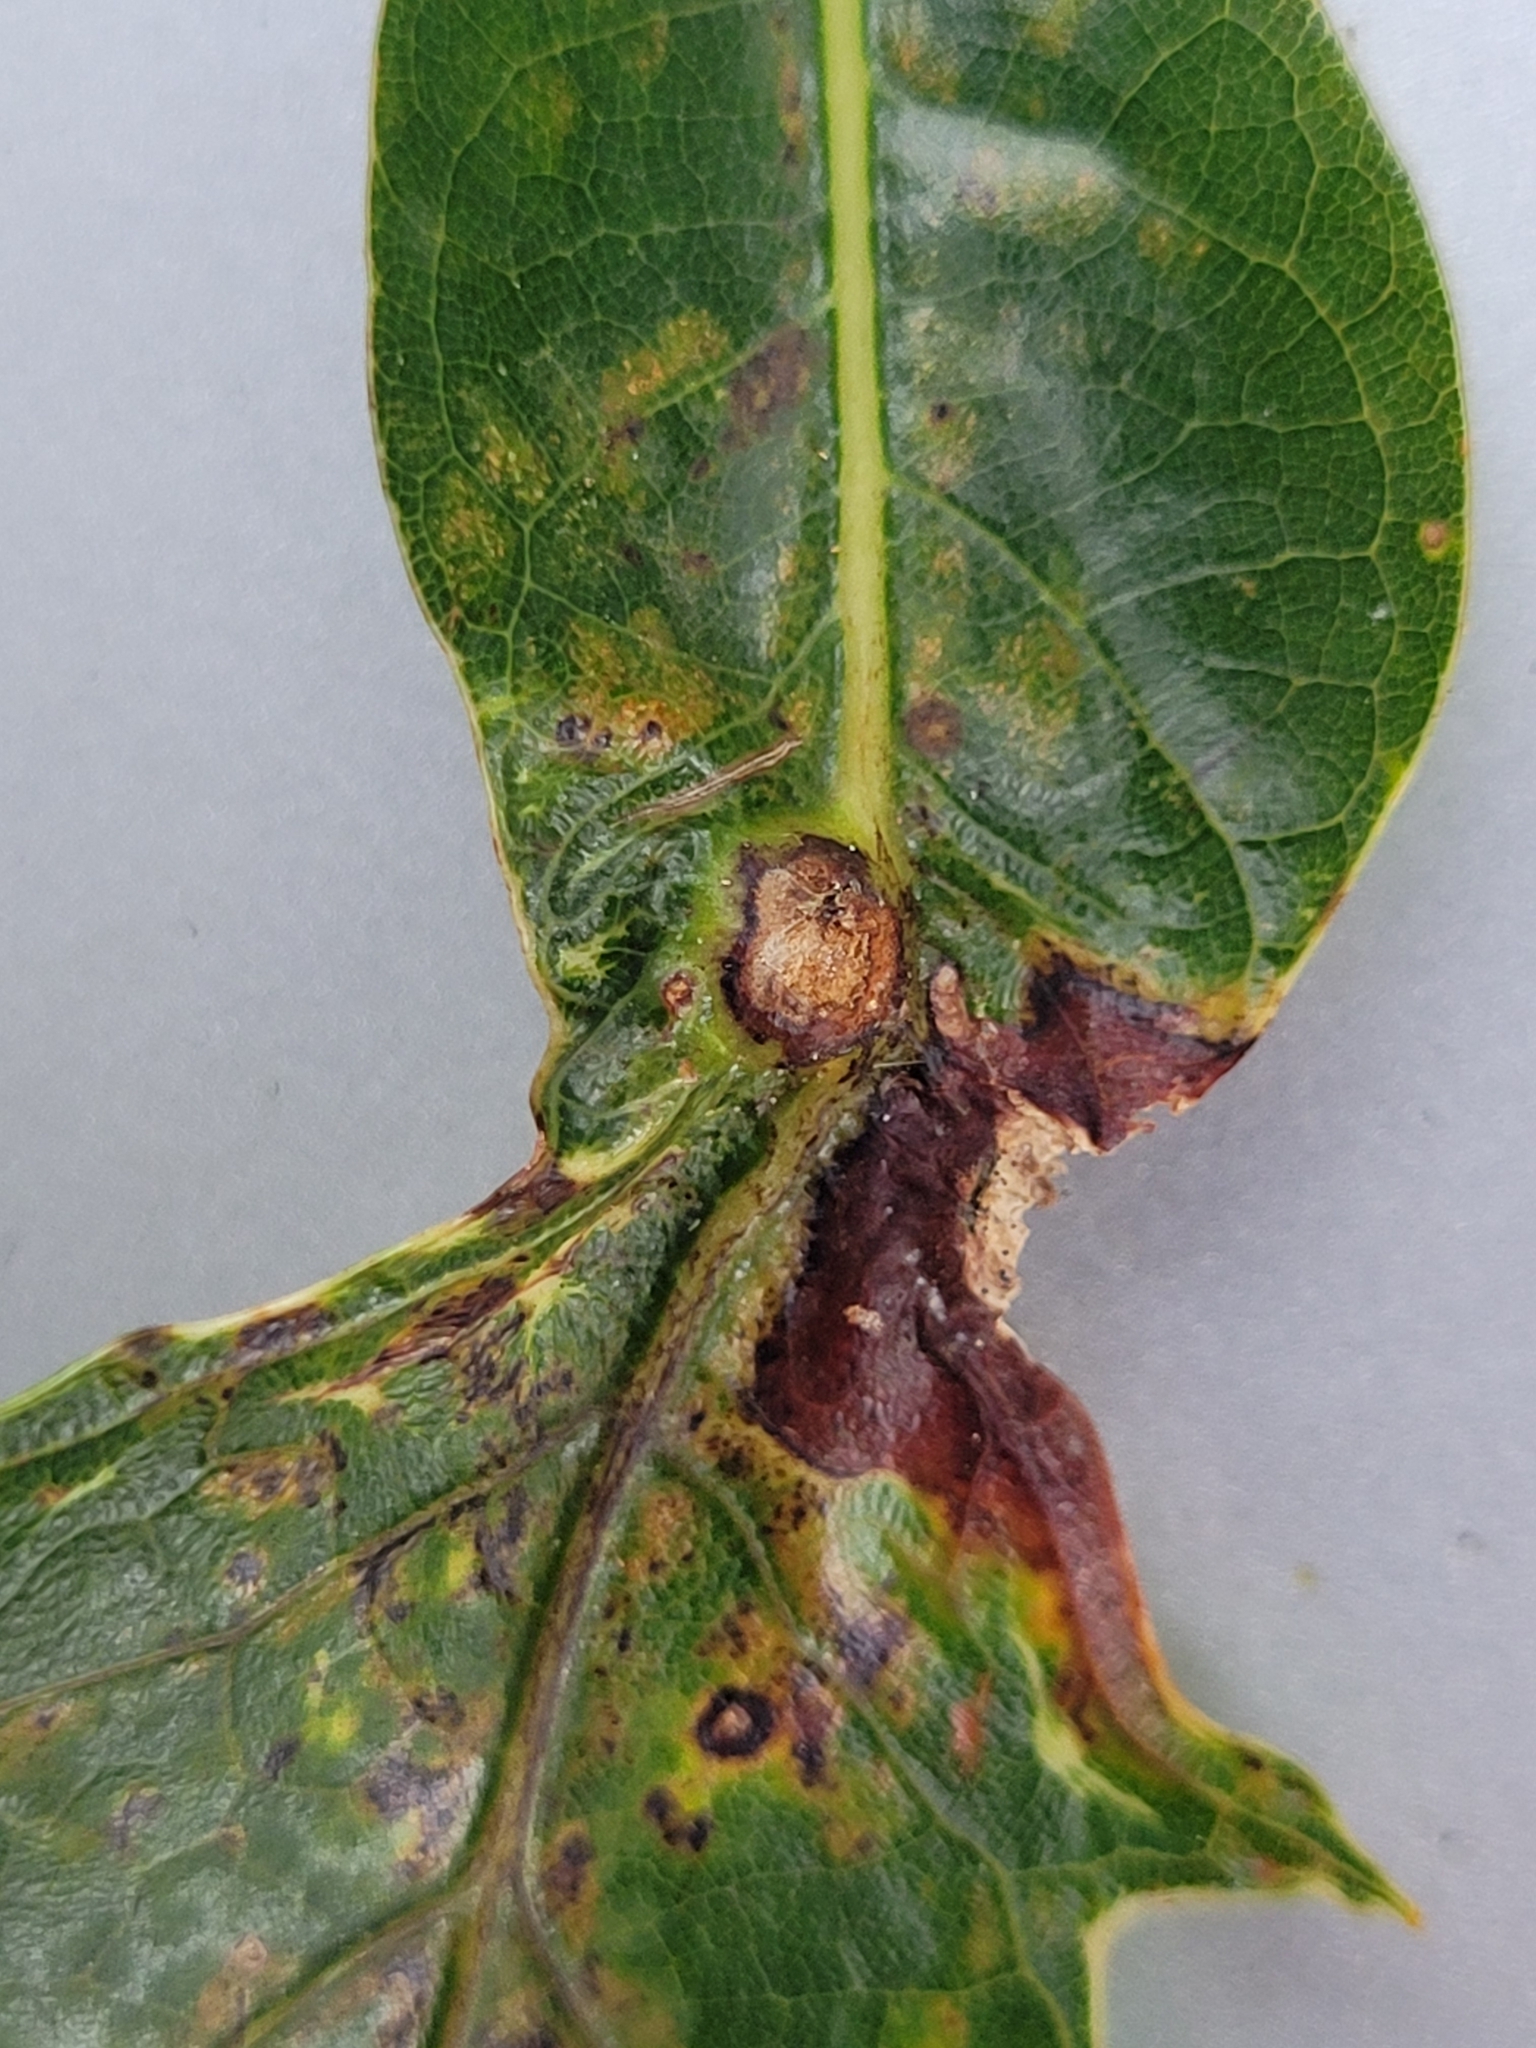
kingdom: Animalia
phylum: Arthropoda
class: Insecta
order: Hymenoptera
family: Cynipidae
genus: Andricus
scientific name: Andricus
